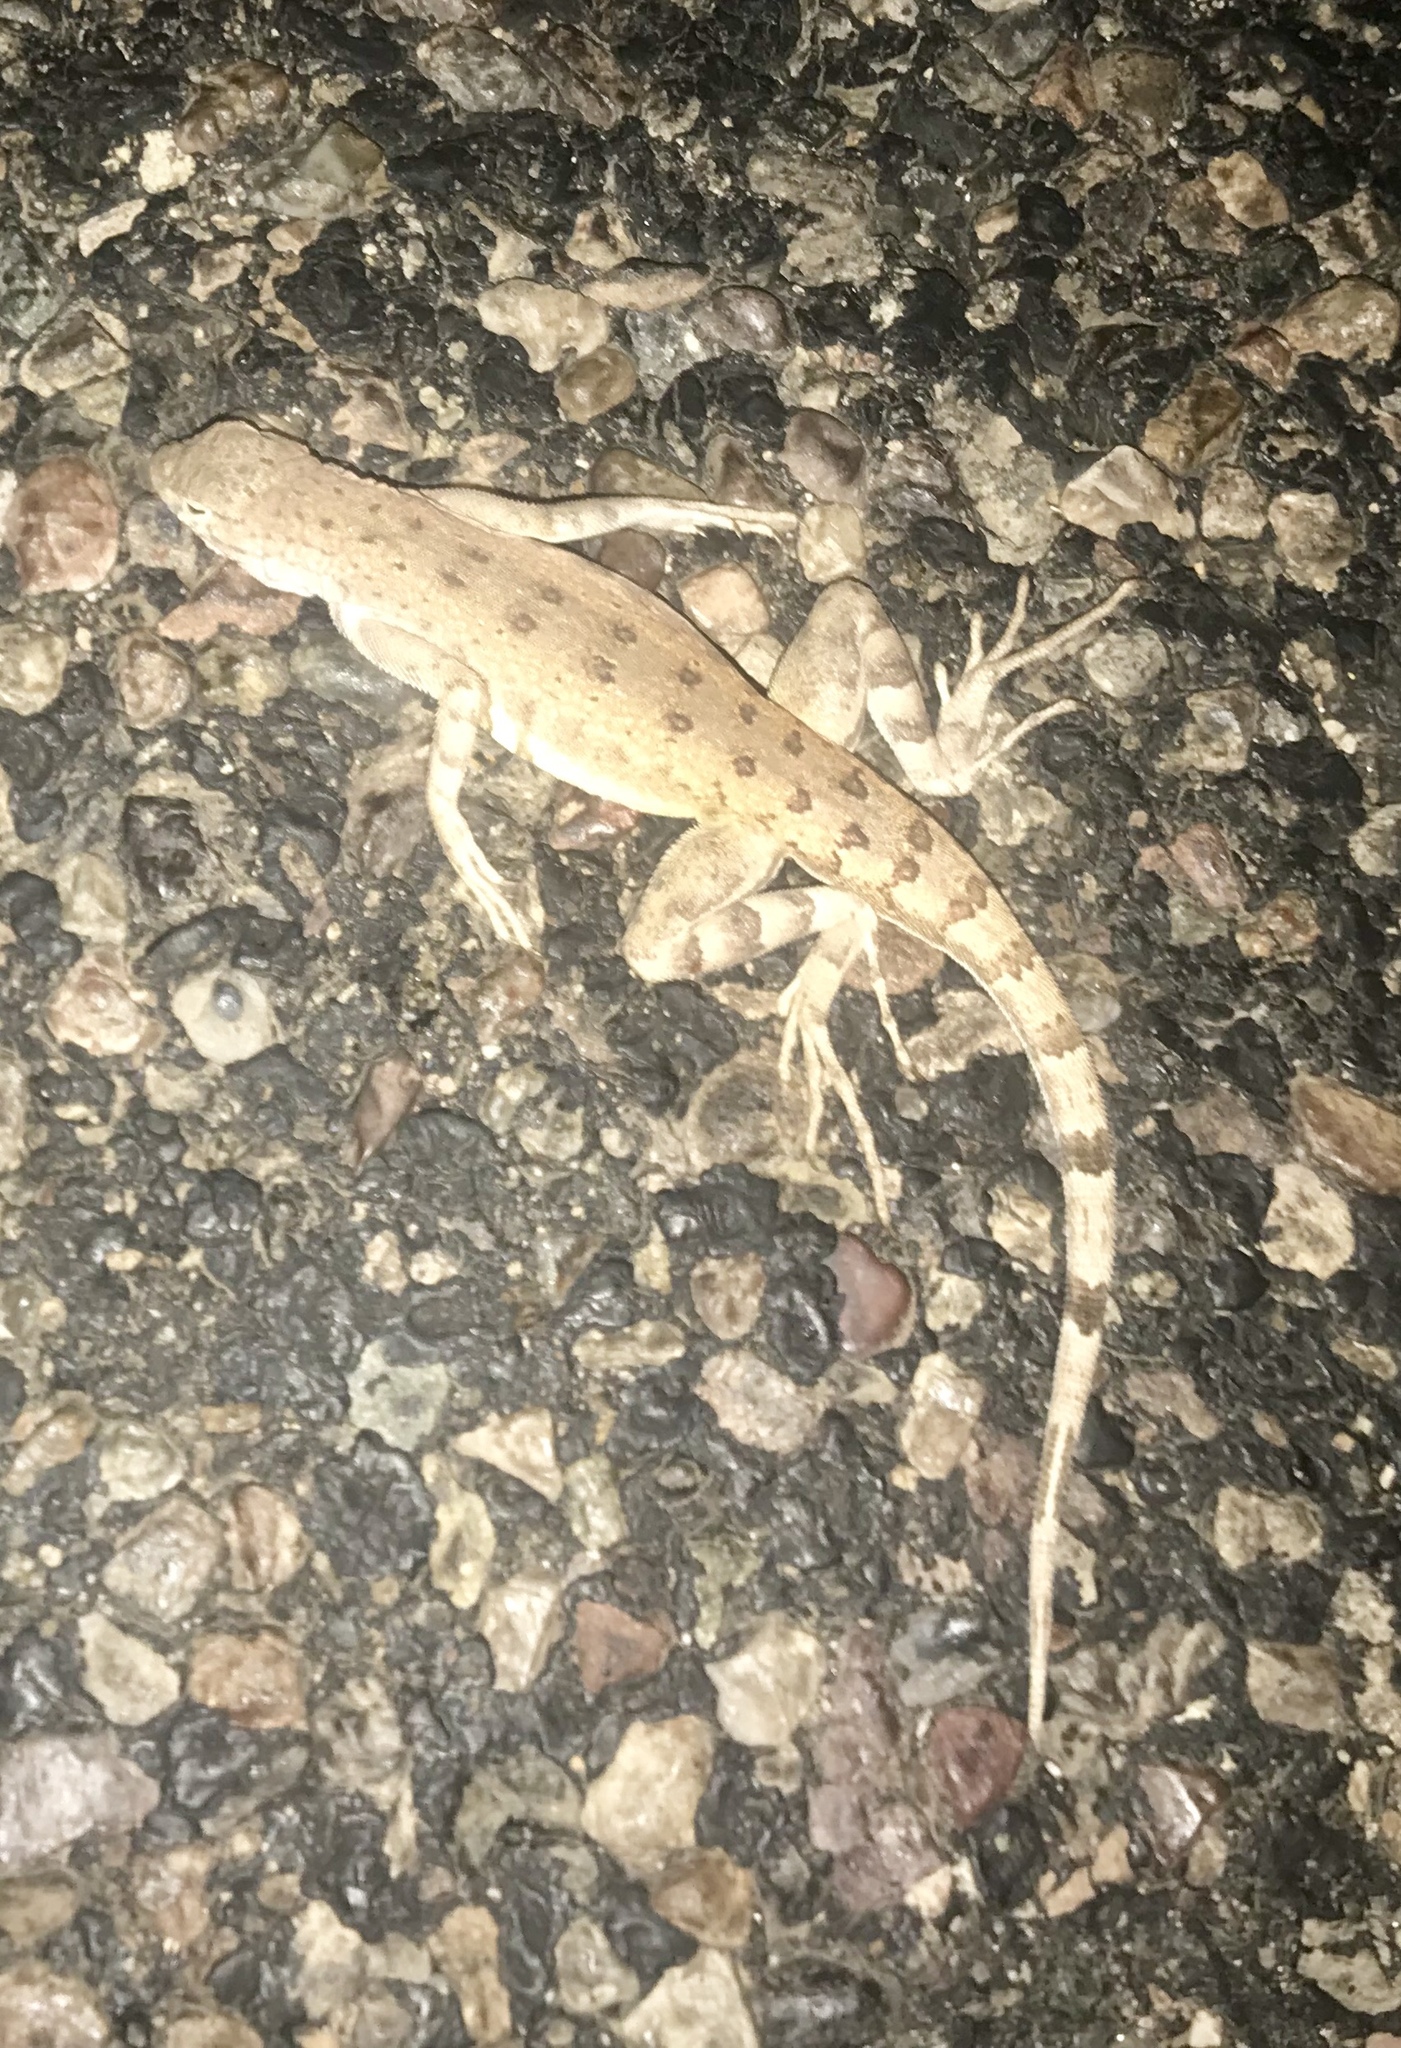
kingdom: Animalia
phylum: Chordata
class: Squamata
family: Phrynosomatidae
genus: Callisaurus
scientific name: Callisaurus draconoides
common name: Zebra-tailed lizard
